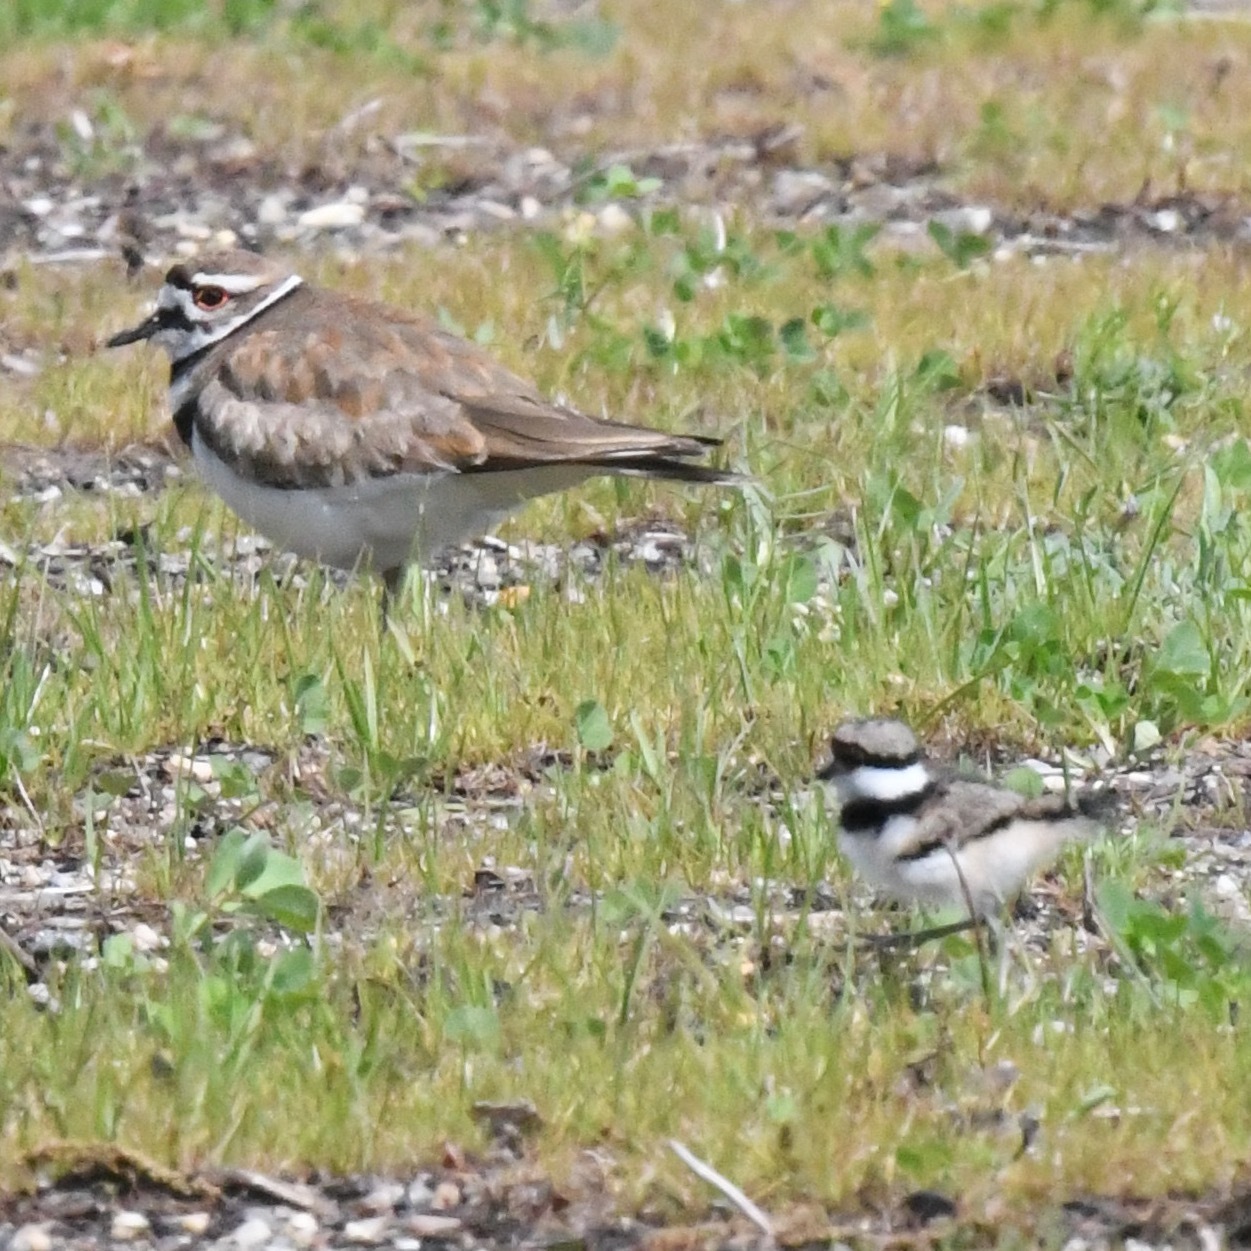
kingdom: Animalia
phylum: Chordata
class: Aves
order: Charadriiformes
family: Charadriidae
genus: Charadrius
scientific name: Charadrius vociferus
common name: Killdeer
